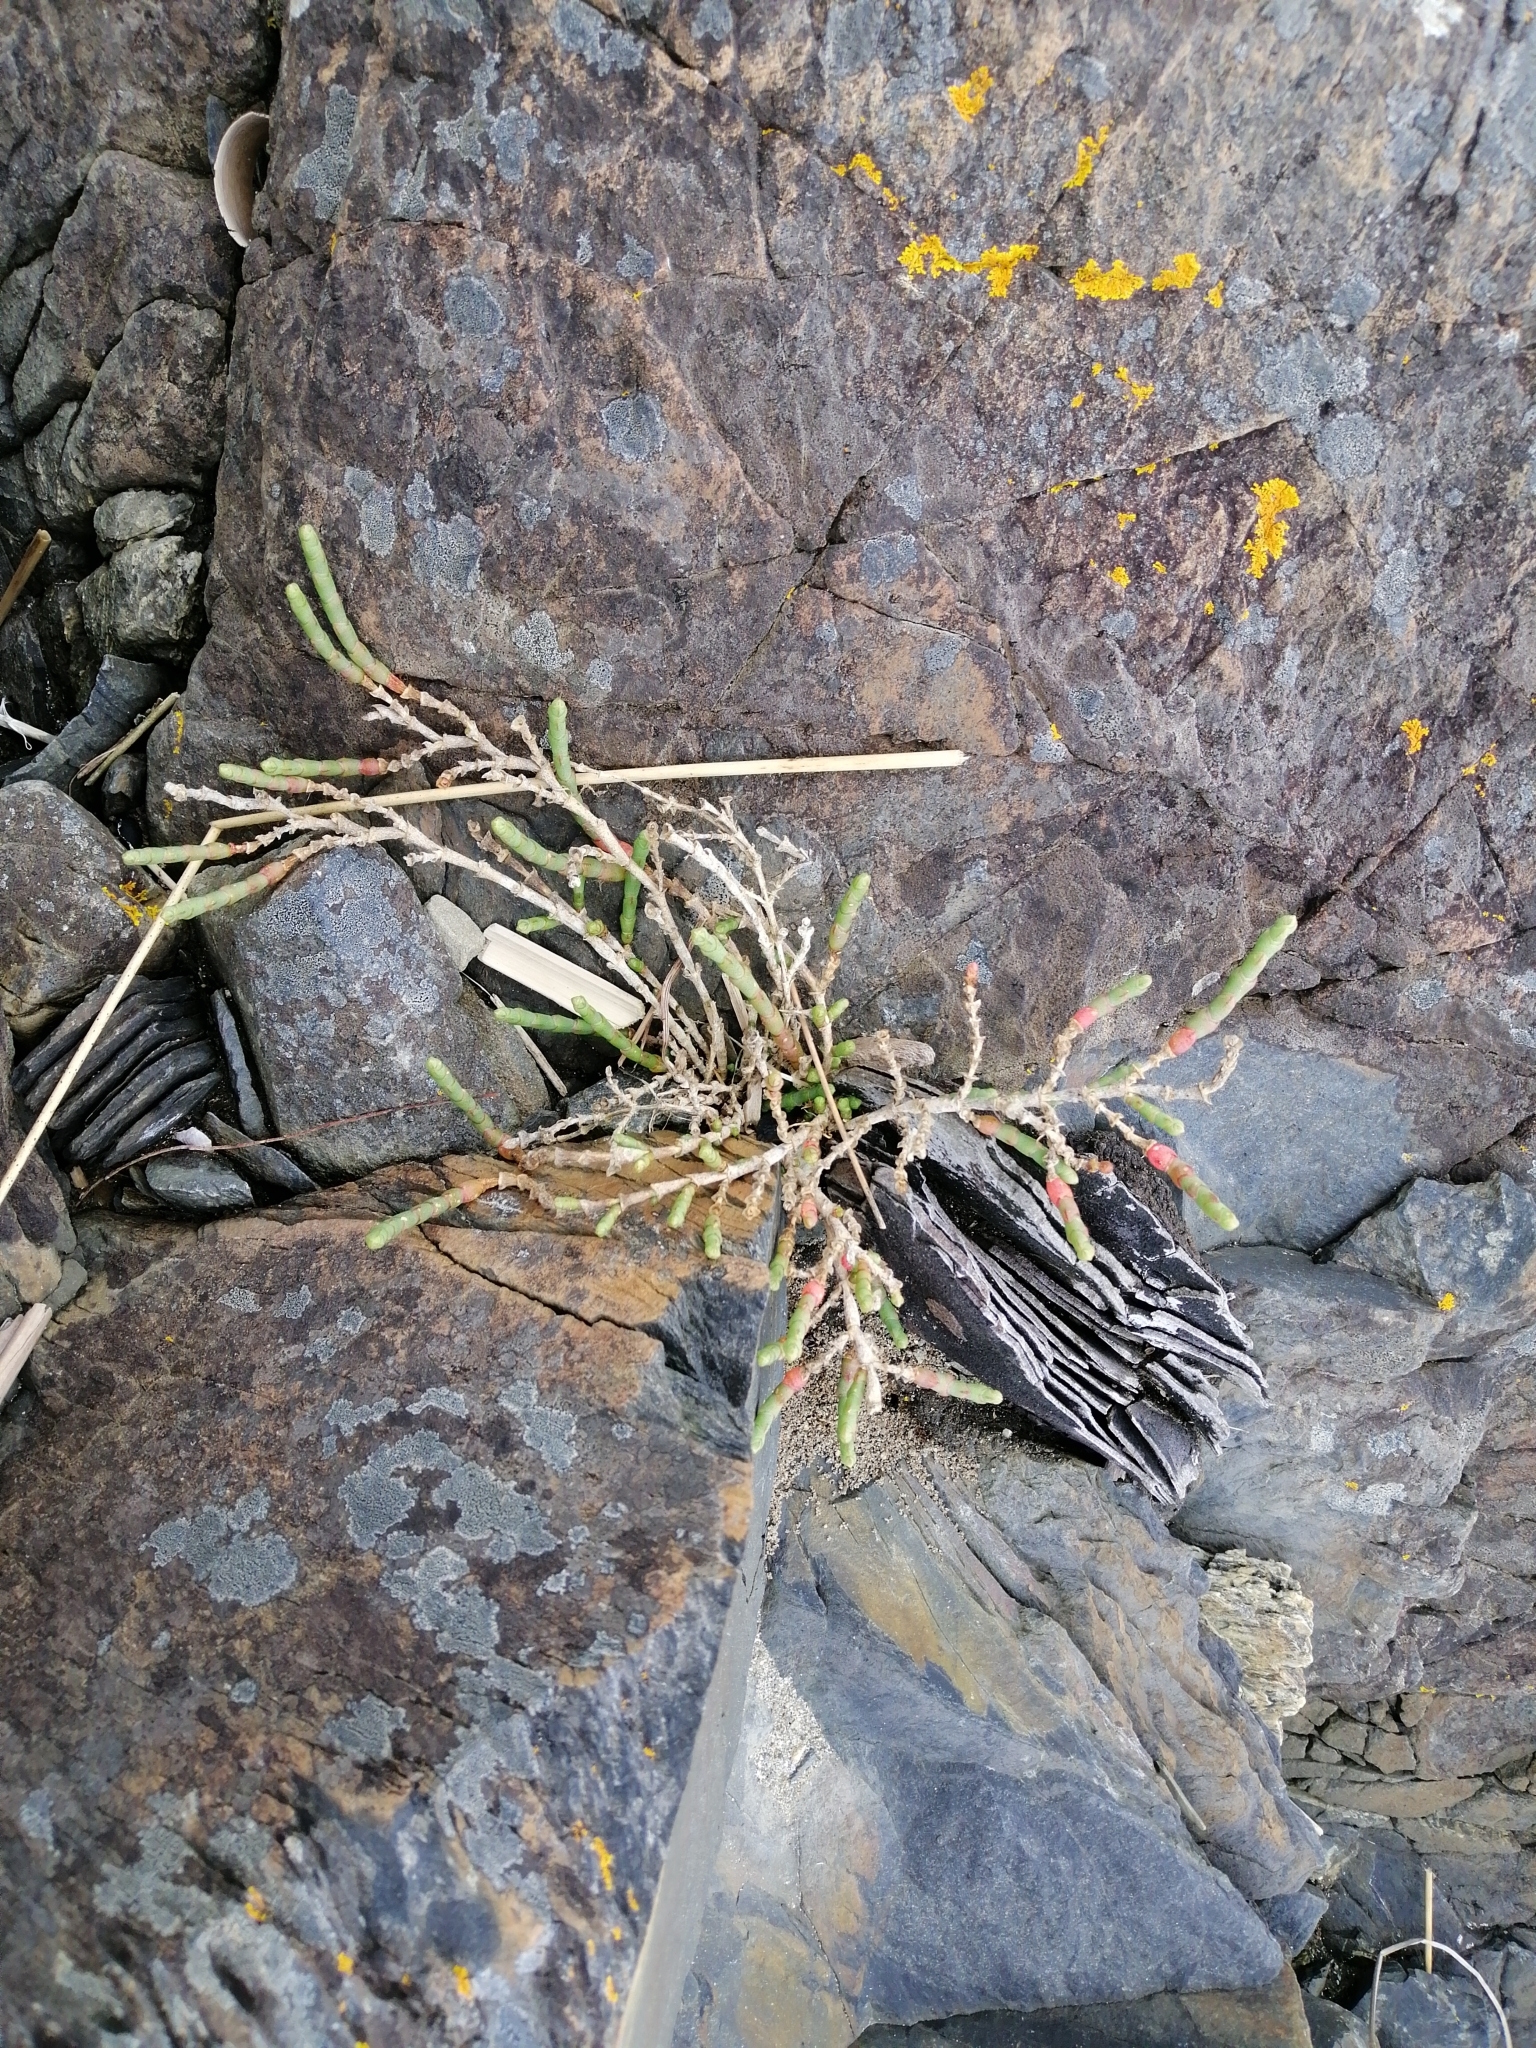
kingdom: Plantae
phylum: Tracheophyta
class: Magnoliopsida
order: Caryophyllales
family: Amaranthaceae
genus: Salicornia
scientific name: Salicornia quinqueflora
